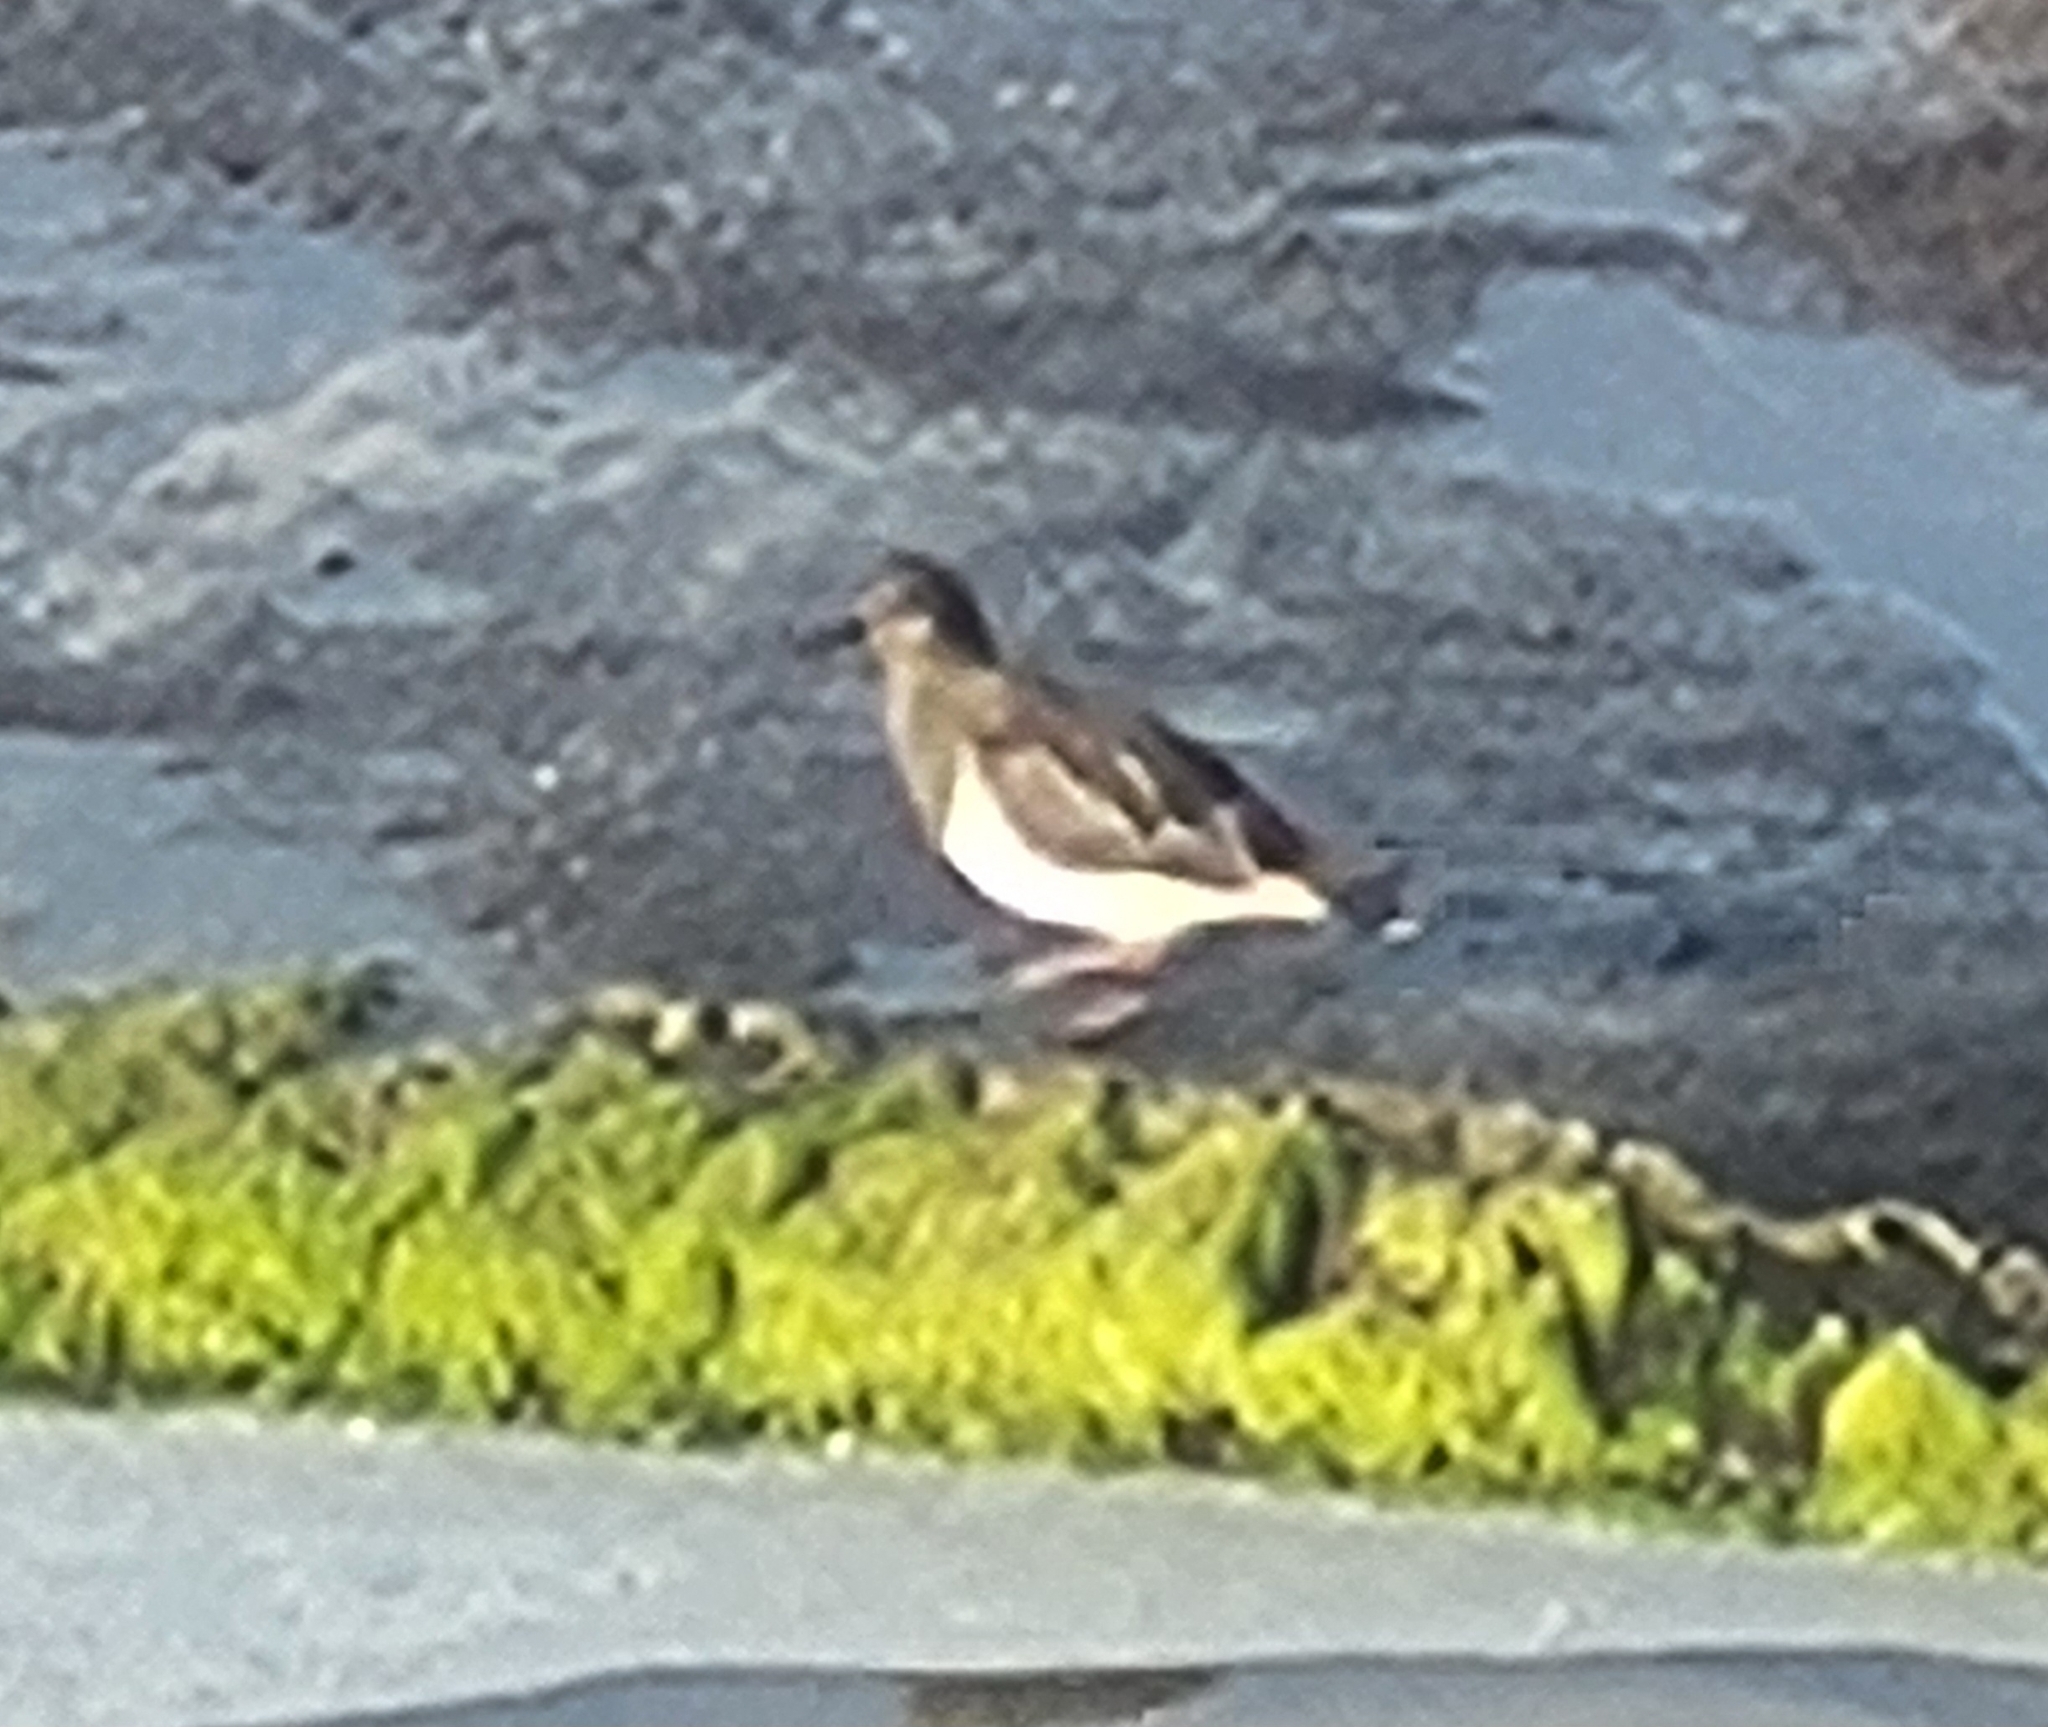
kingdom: Animalia
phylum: Chordata
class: Aves
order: Charadriiformes
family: Scolopacidae
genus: Arenaria
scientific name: Arenaria melanocephala
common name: Black turnstone
